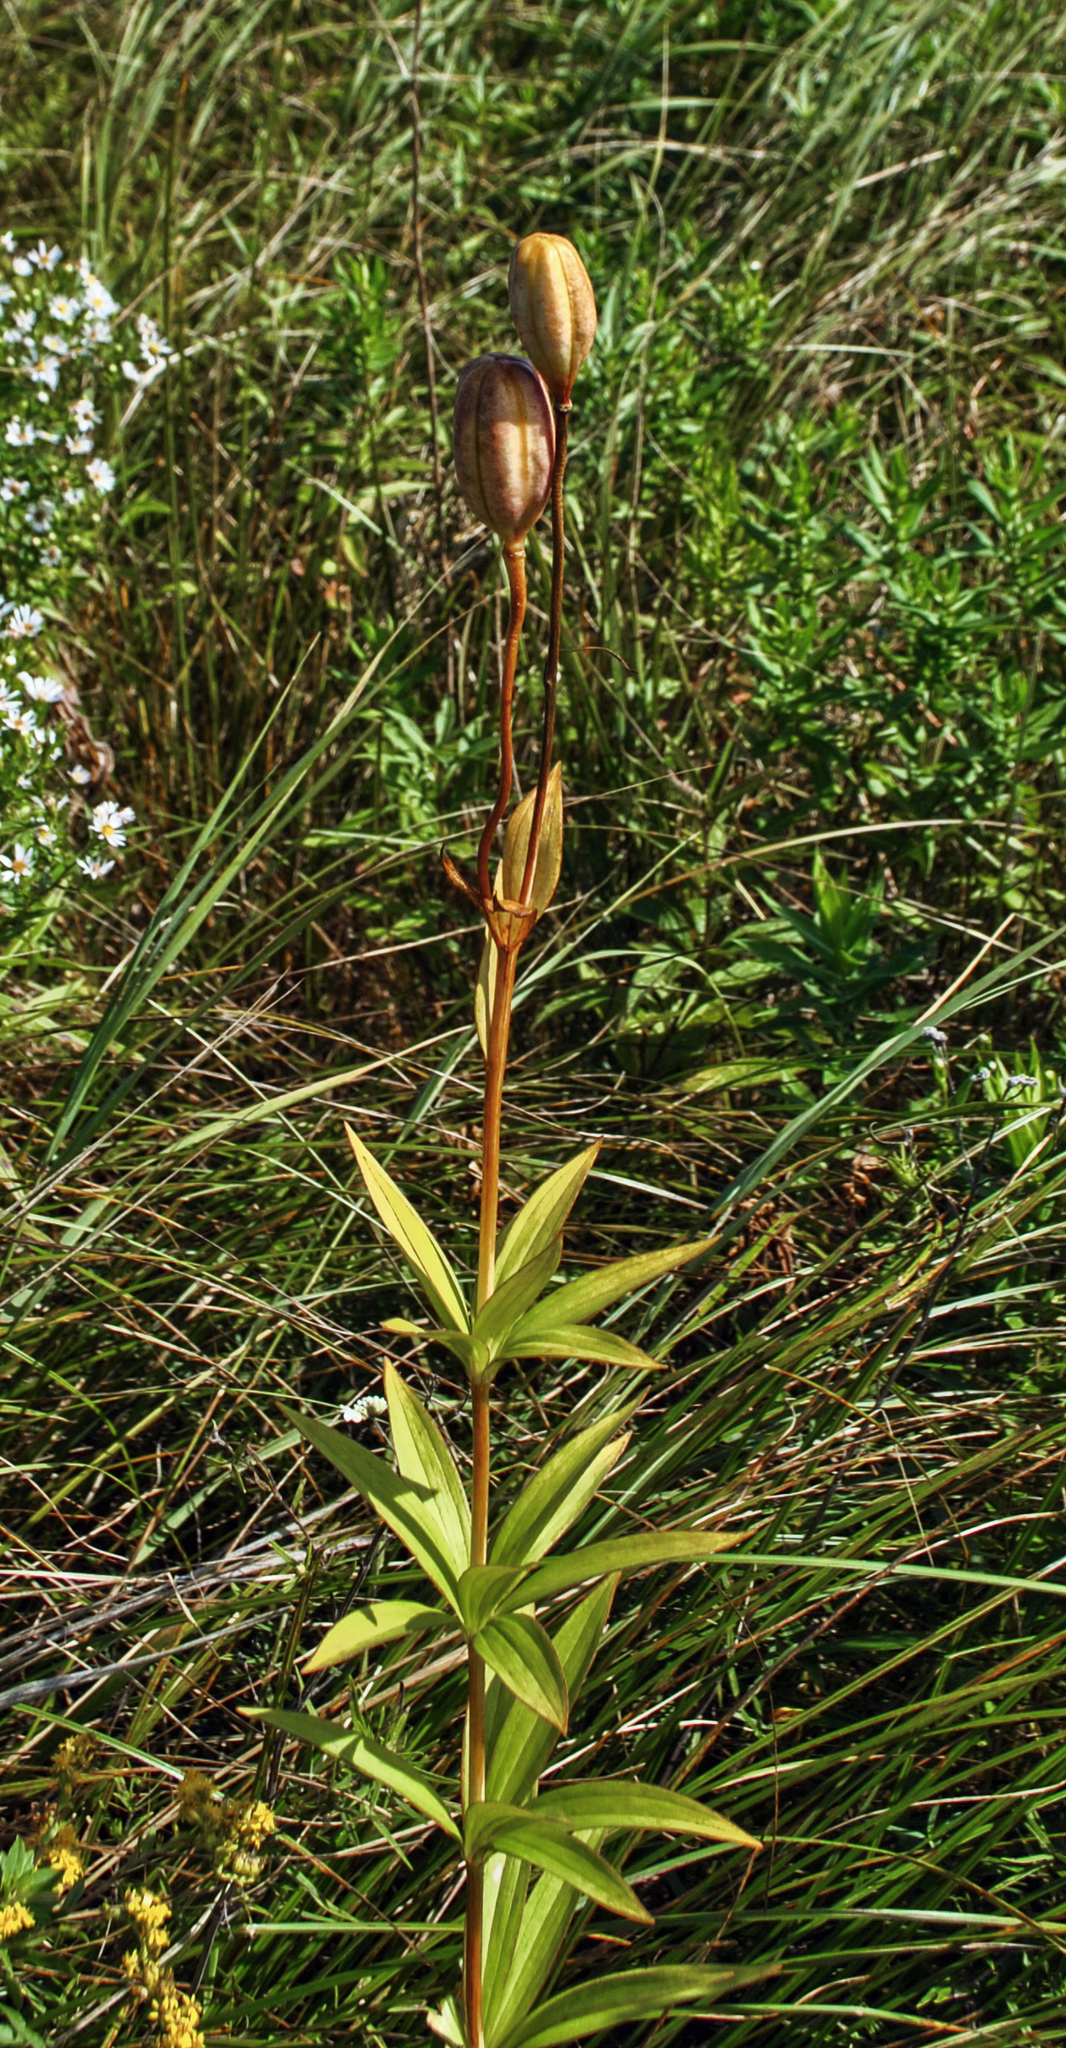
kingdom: Plantae
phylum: Tracheophyta
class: Liliopsida
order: Liliales
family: Liliaceae
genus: Lilium
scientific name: Lilium michiganense
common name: Michigan lily
